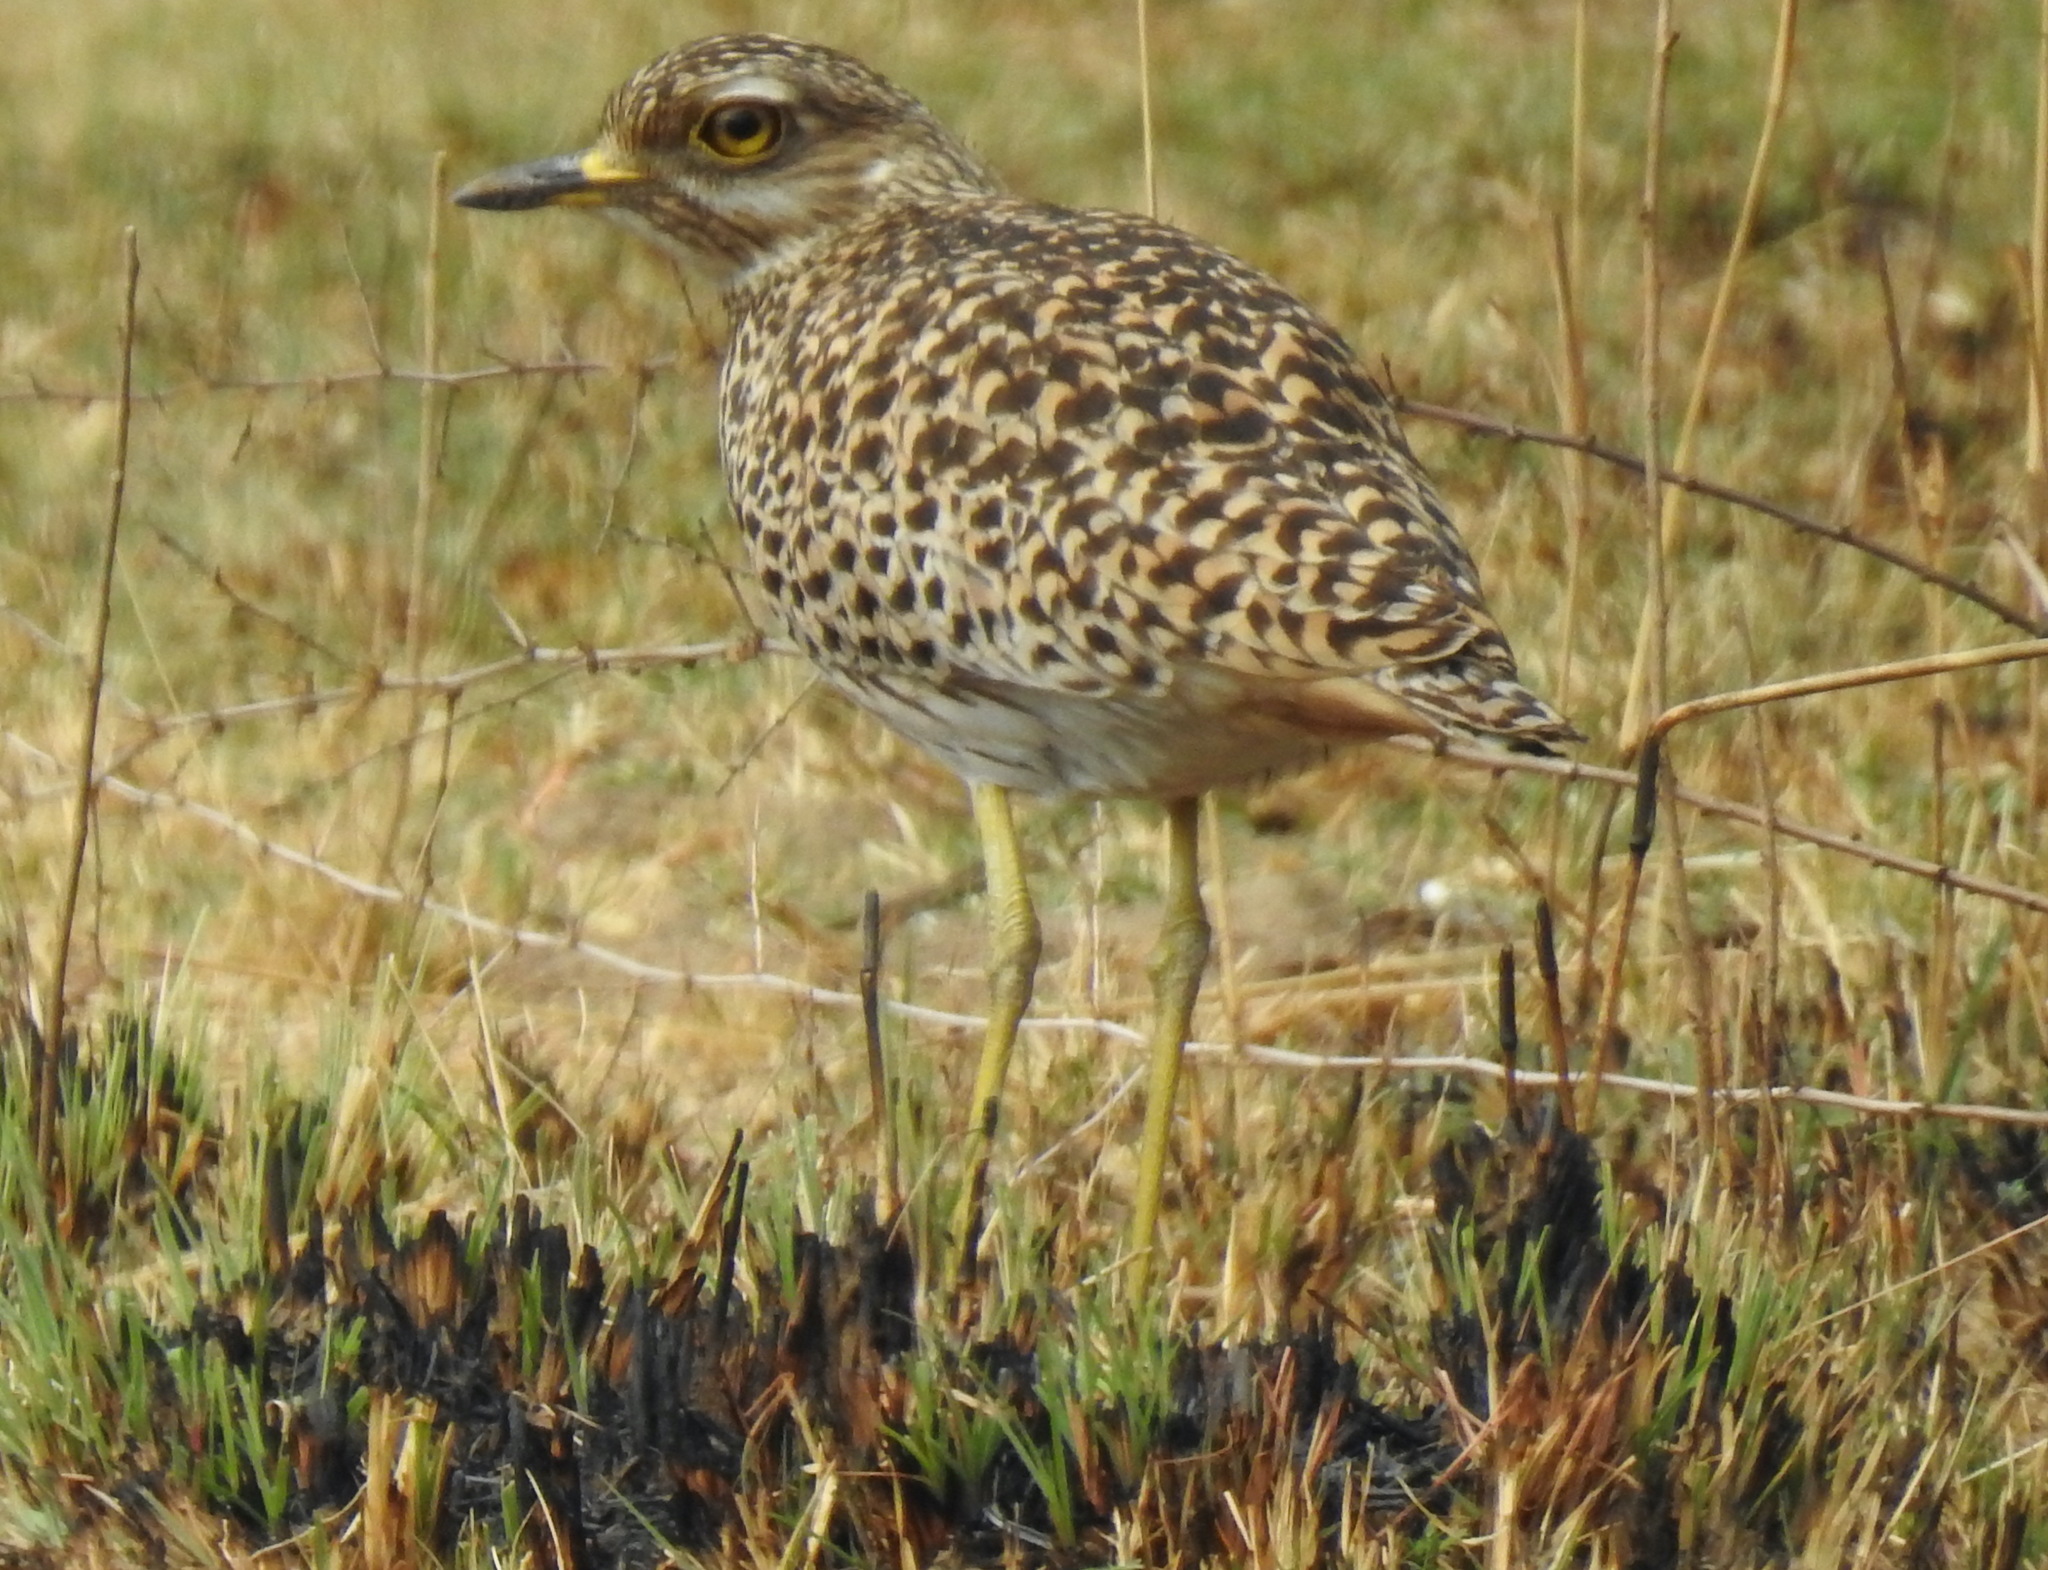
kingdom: Animalia
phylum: Chordata
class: Aves
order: Charadriiformes
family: Burhinidae
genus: Burhinus
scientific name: Burhinus capensis
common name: Spotted thick-knee
